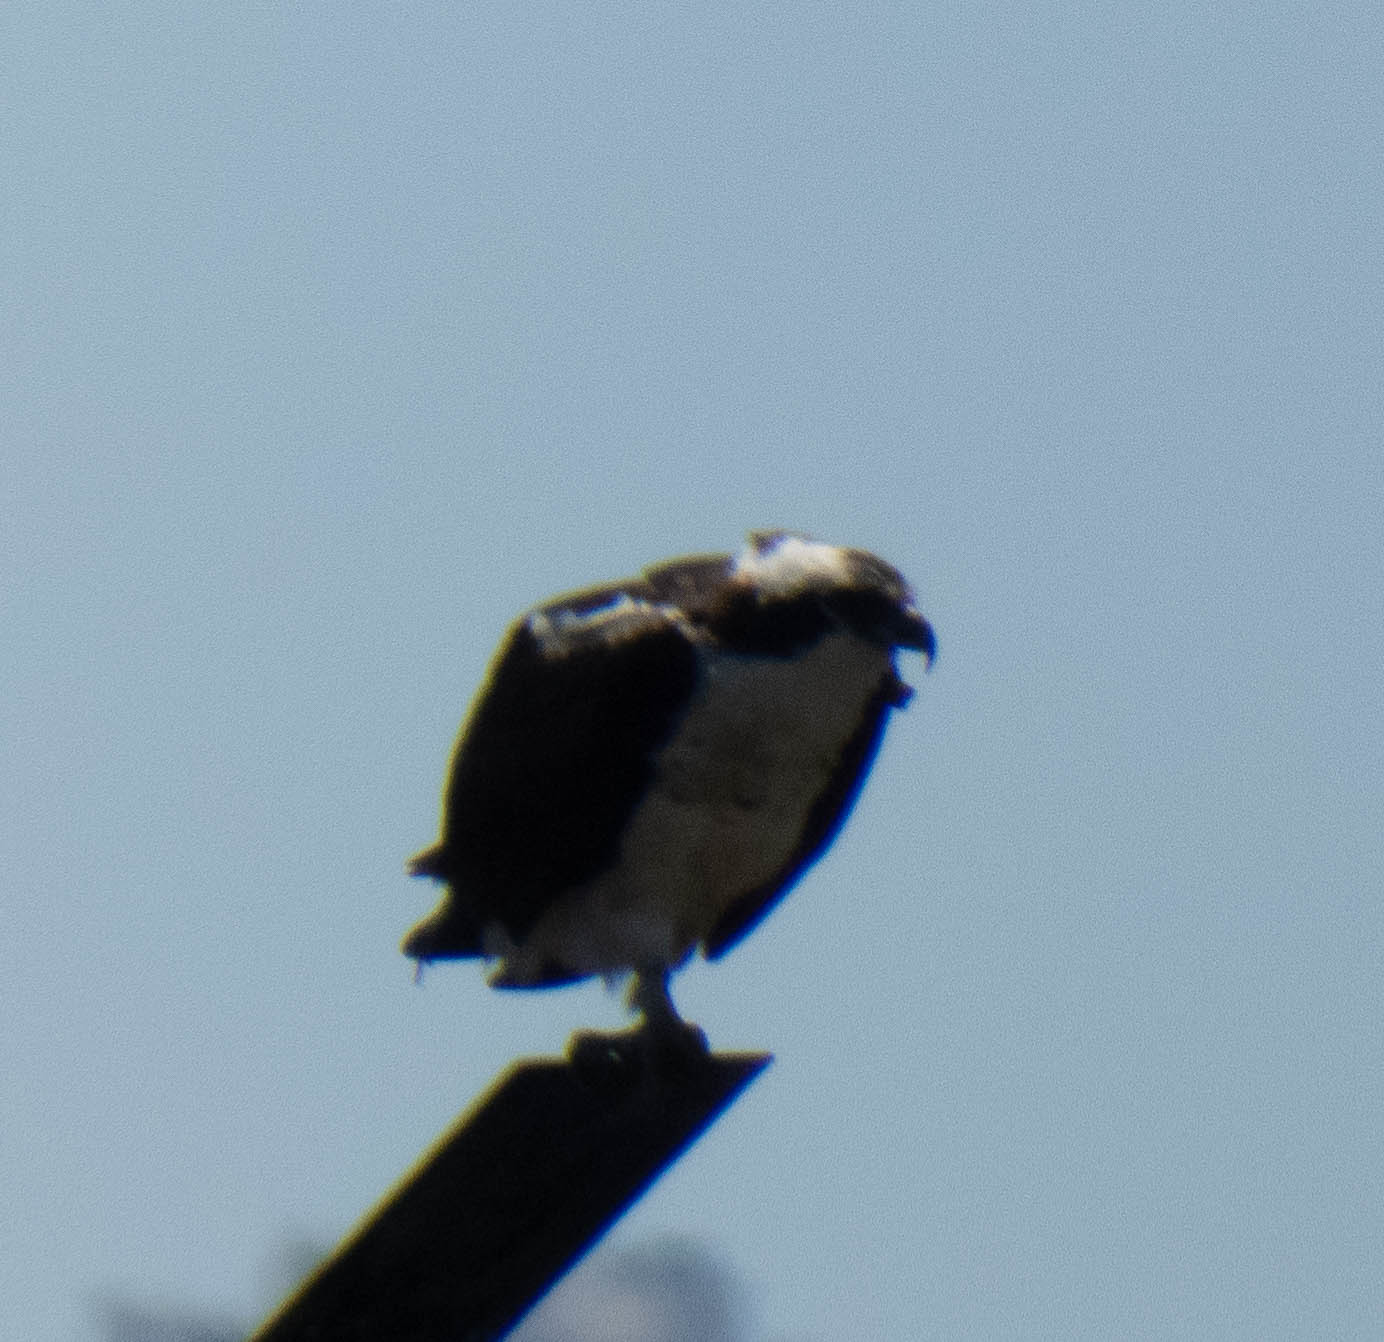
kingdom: Animalia
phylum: Chordata
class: Aves
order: Accipitriformes
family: Pandionidae
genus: Pandion
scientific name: Pandion haliaetus
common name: Osprey
